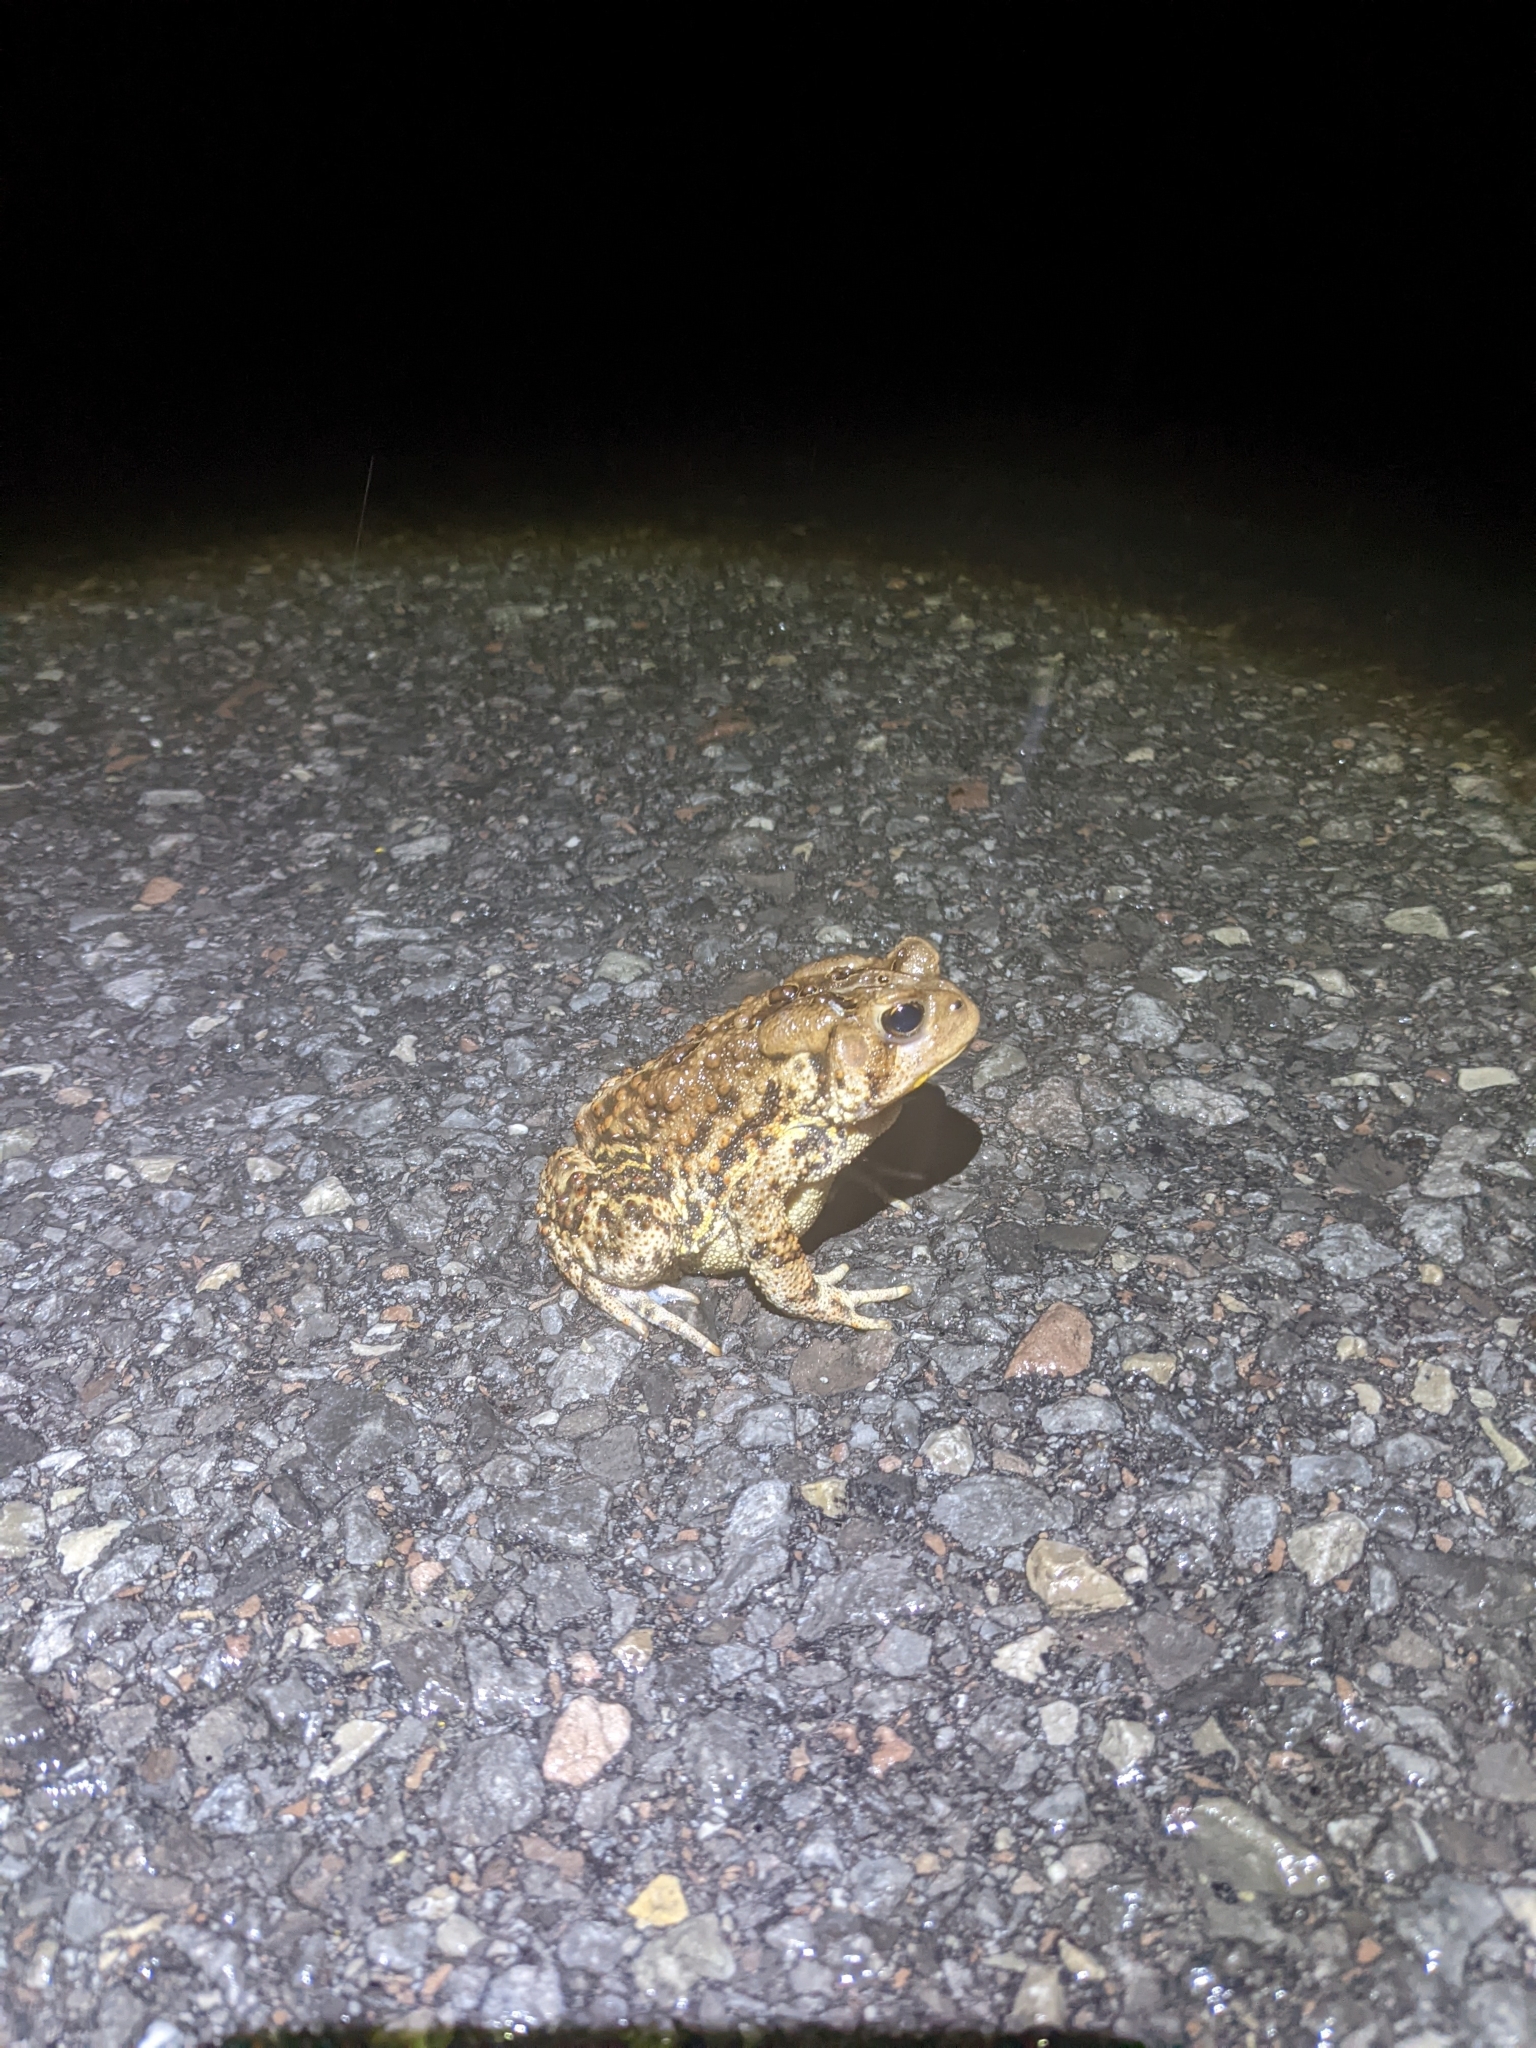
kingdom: Animalia
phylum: Chordata
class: Amphibia
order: Anura
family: Bufonidae
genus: Anaxyrus
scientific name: Anaxyrus americanus
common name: American toad
